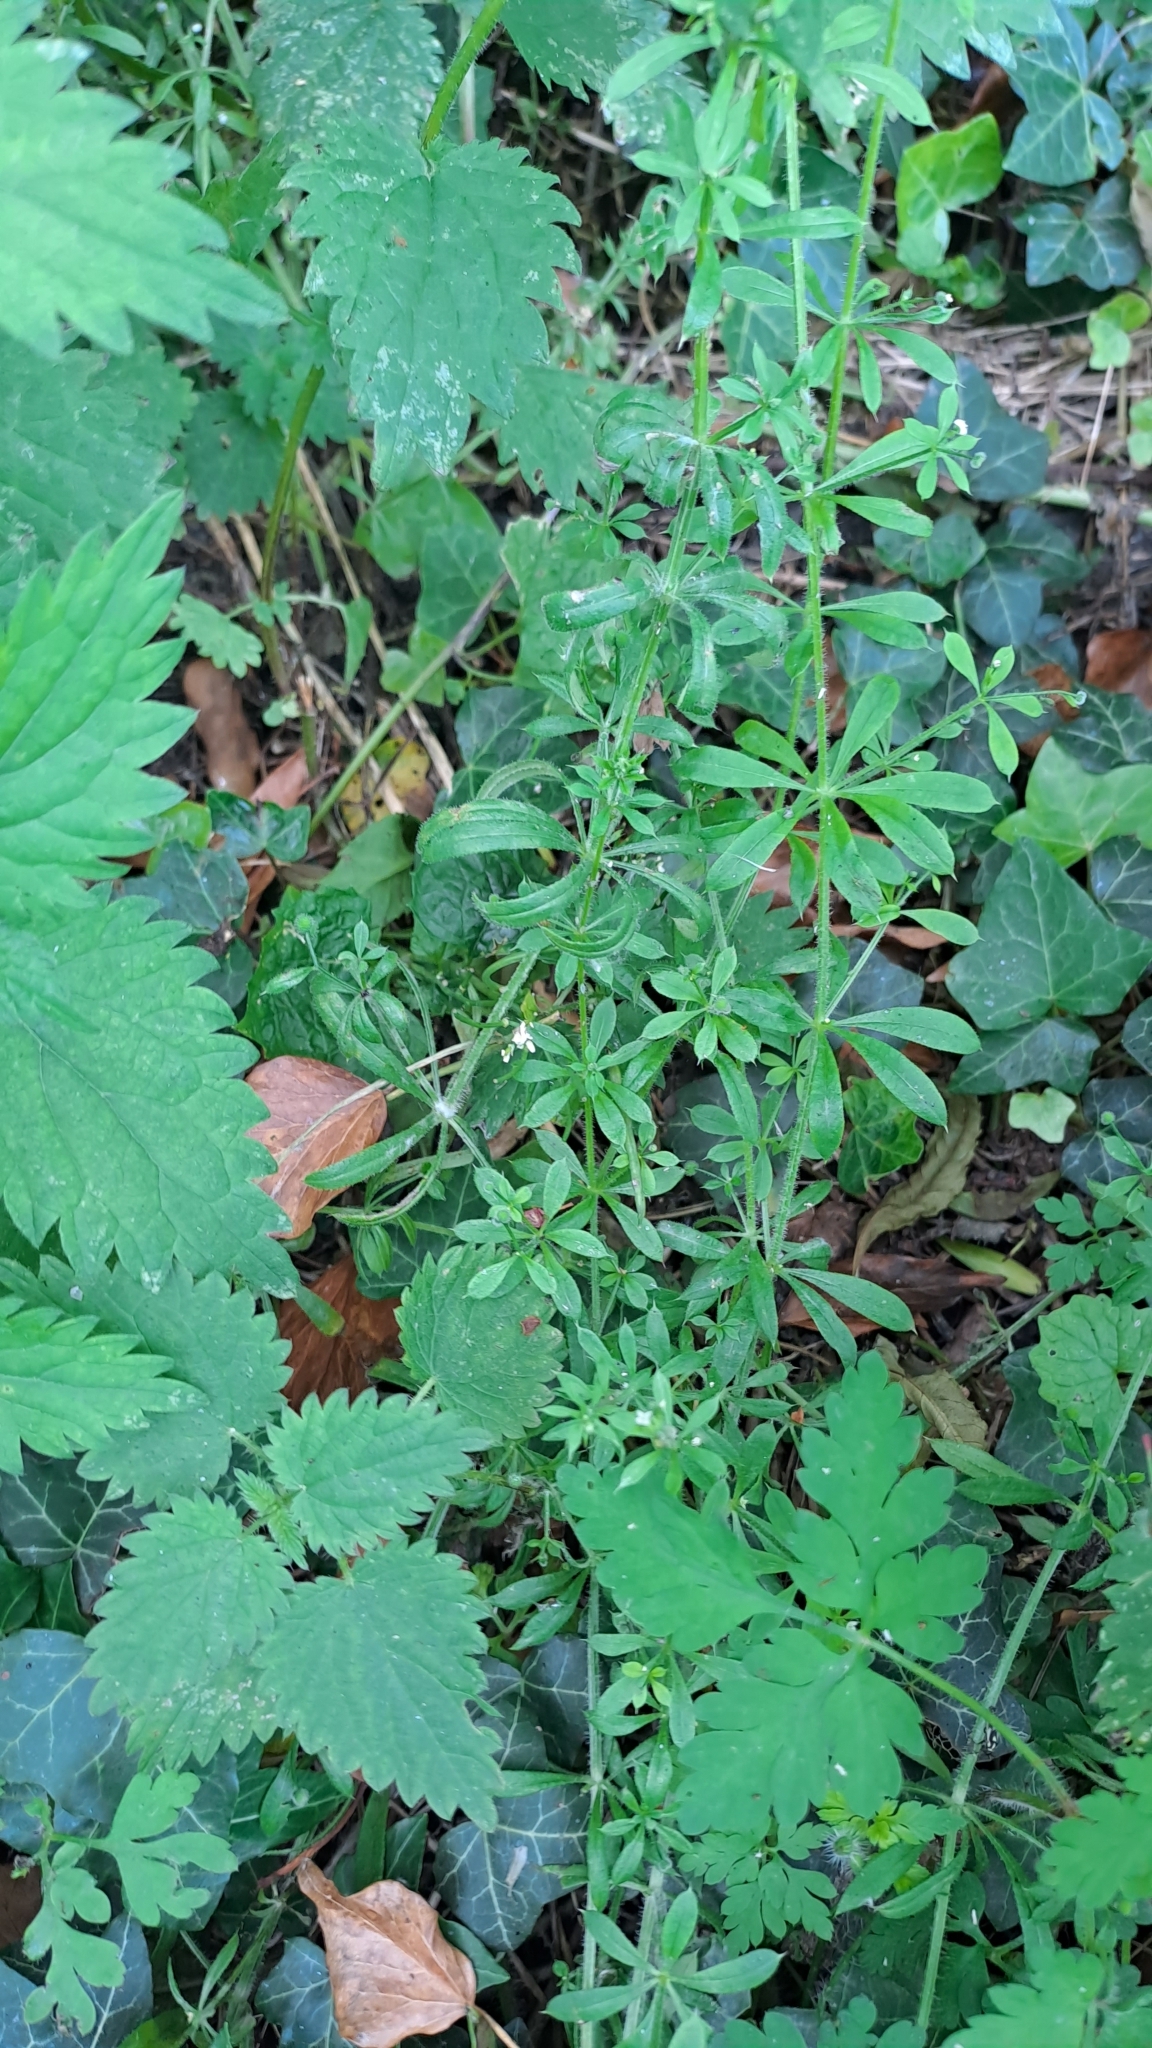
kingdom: Plantae
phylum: Tracheophyta
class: Magnoliopsida
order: Gentianales
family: Rubiaceae
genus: Galium
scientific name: Galium aparine
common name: Cleavers
